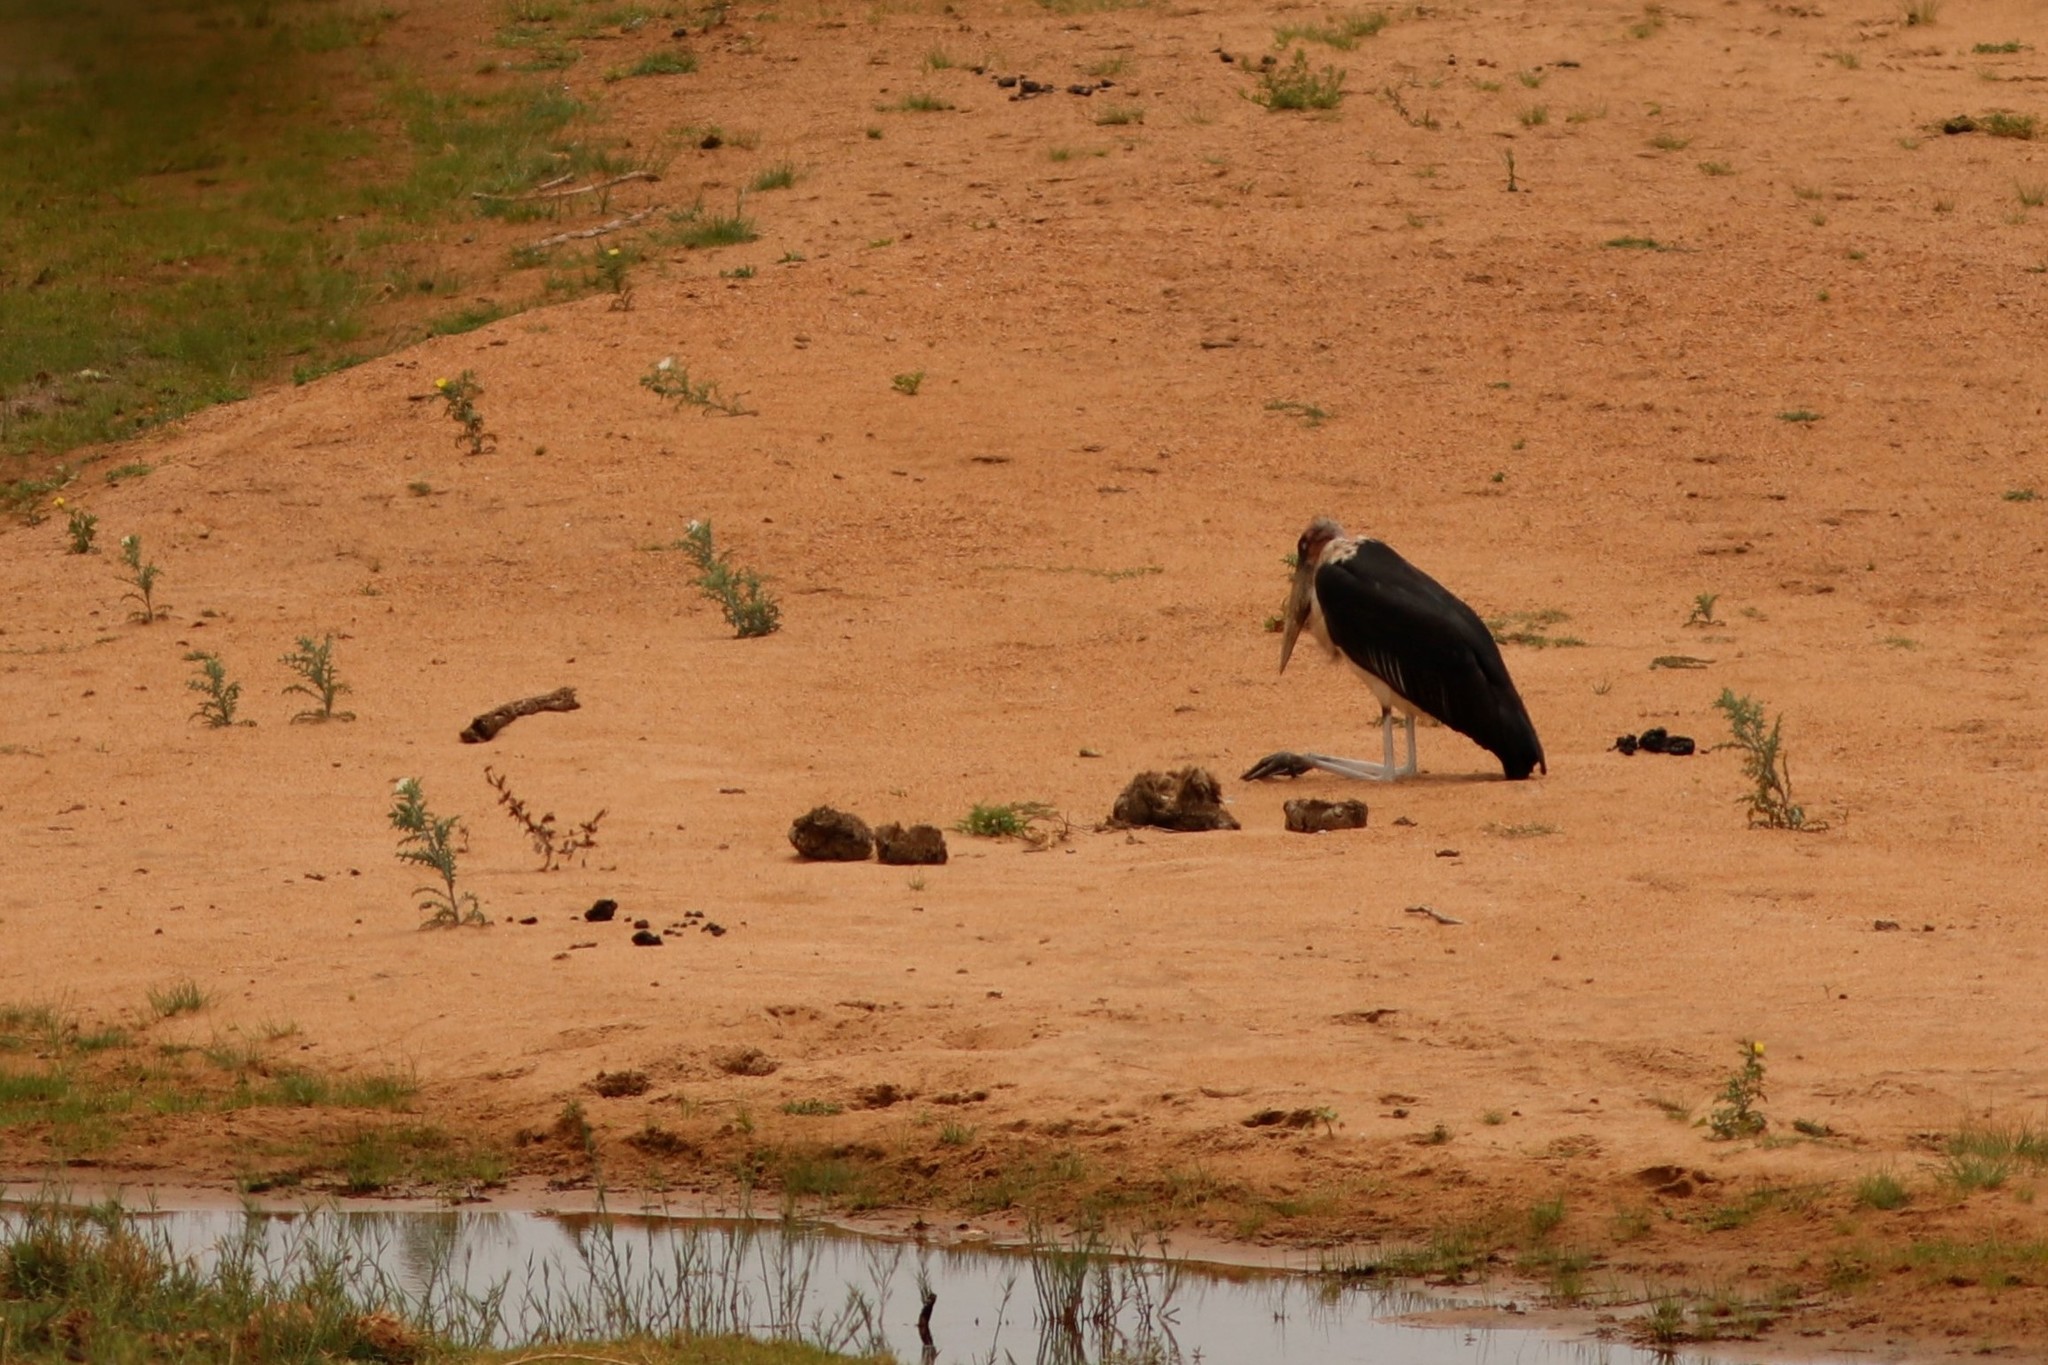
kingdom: Animalia
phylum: Chordata
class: Aves
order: Ciconiiformes
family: Ciconiidae
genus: Leptoptilos
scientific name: Leptoptilos crumenifer
